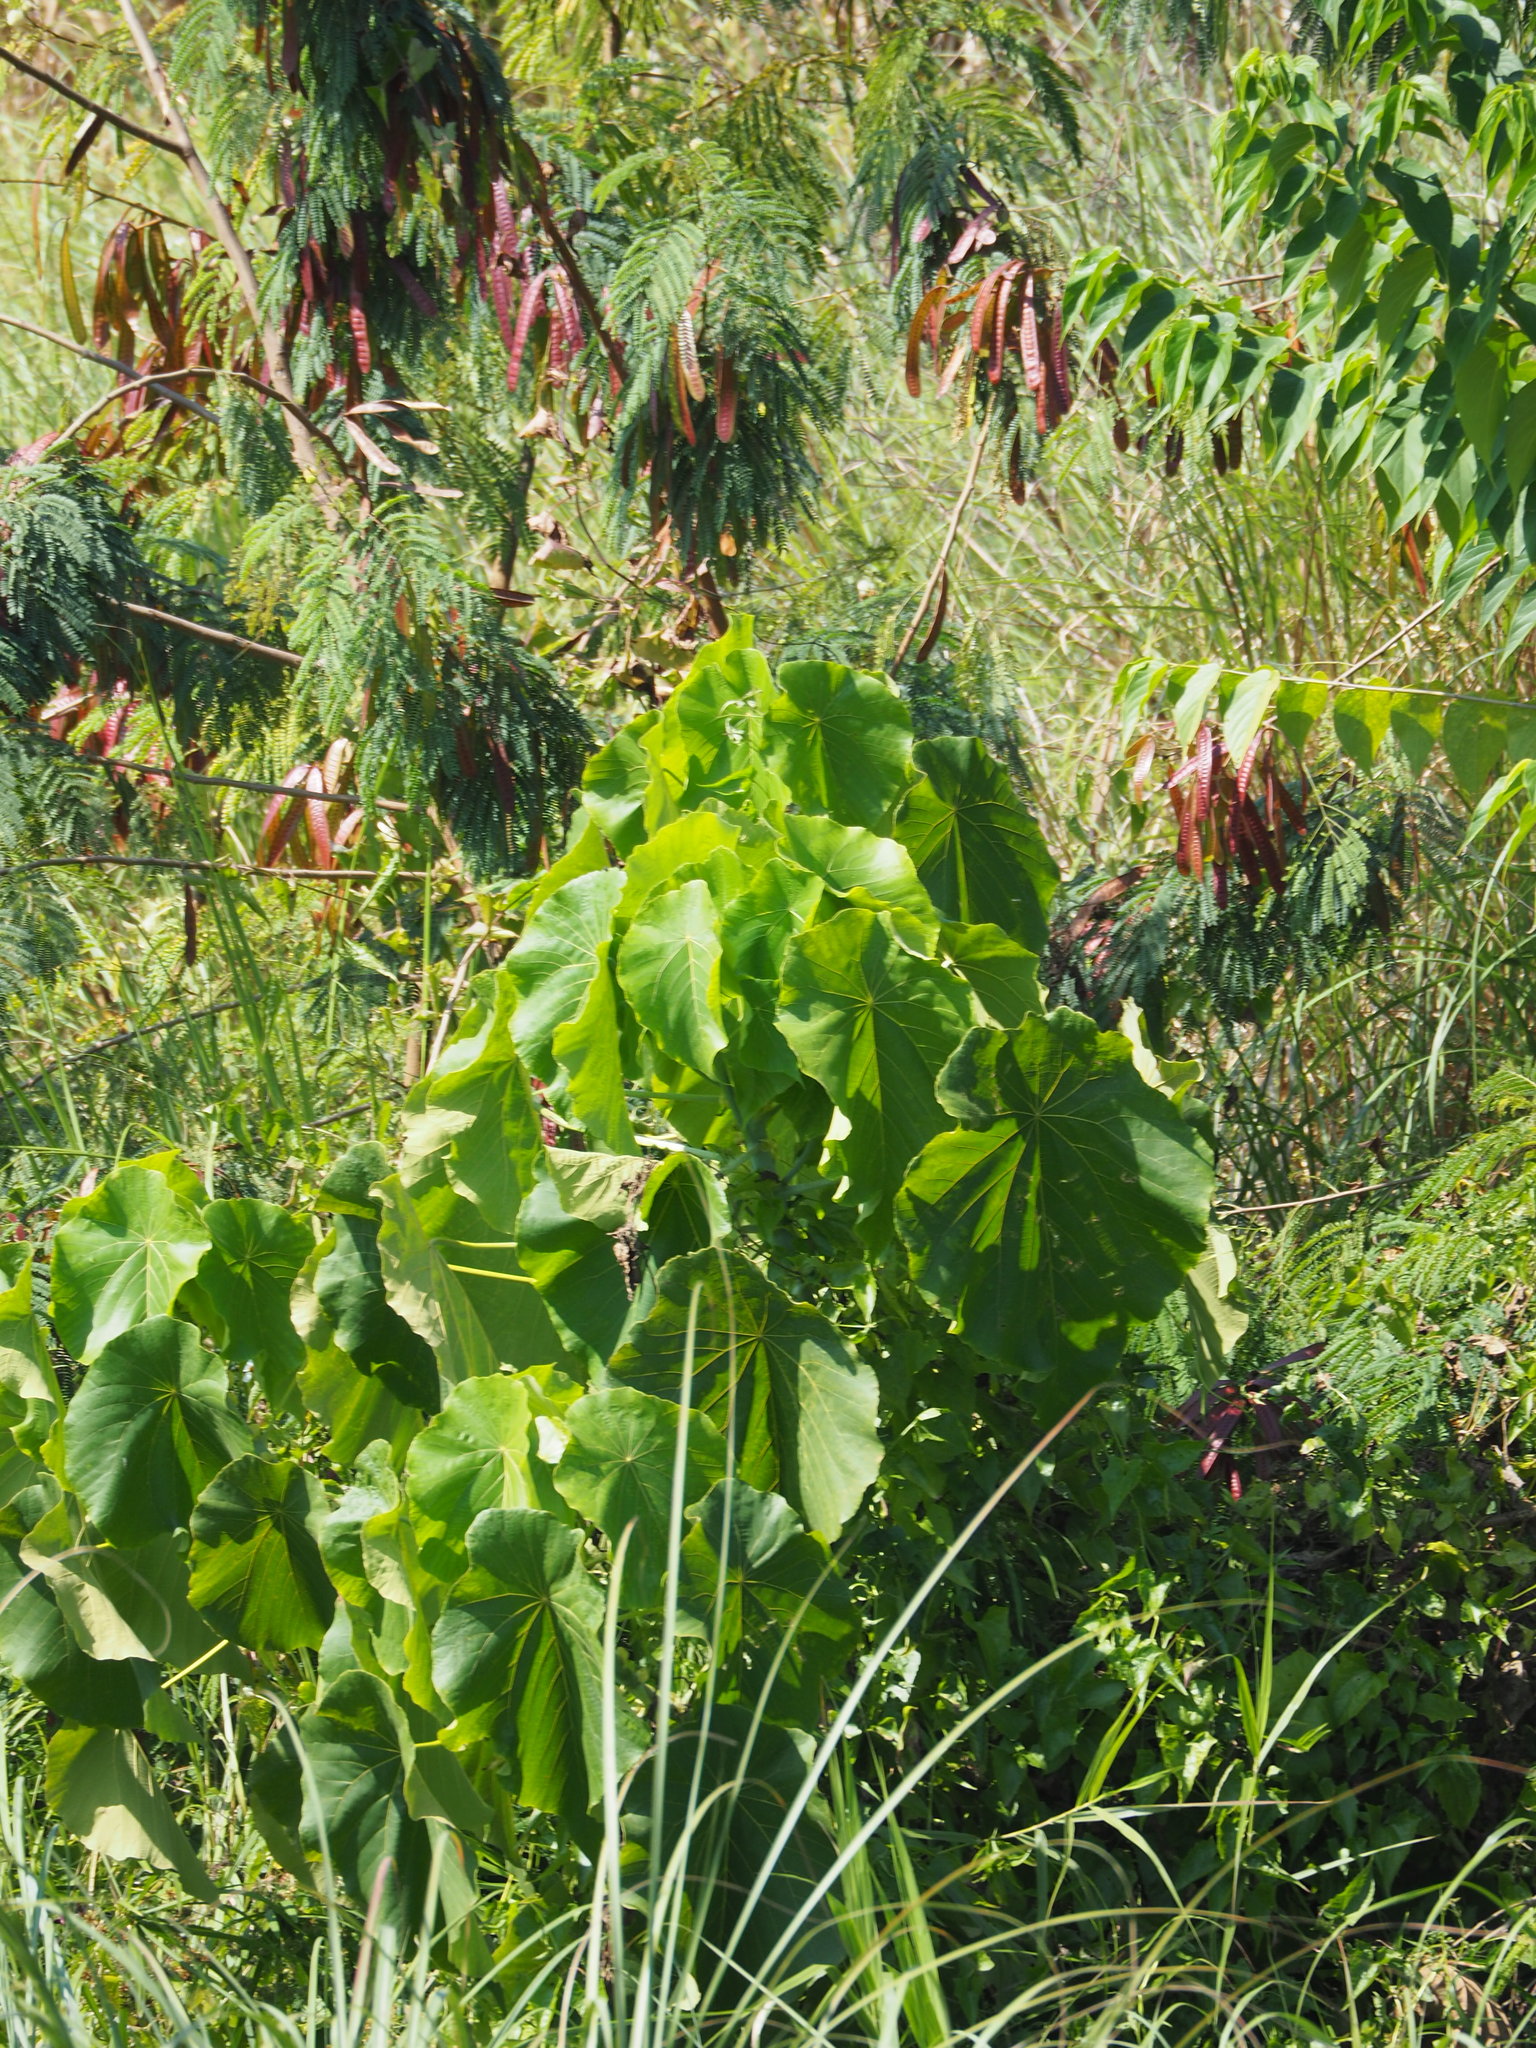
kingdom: Plantae
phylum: Tracheophyta
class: Magnoliopsida
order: Malpighiales
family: Euphorbiaceae
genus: Macaranga
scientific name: Macaranga tanarius
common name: Parasol leaf tree
